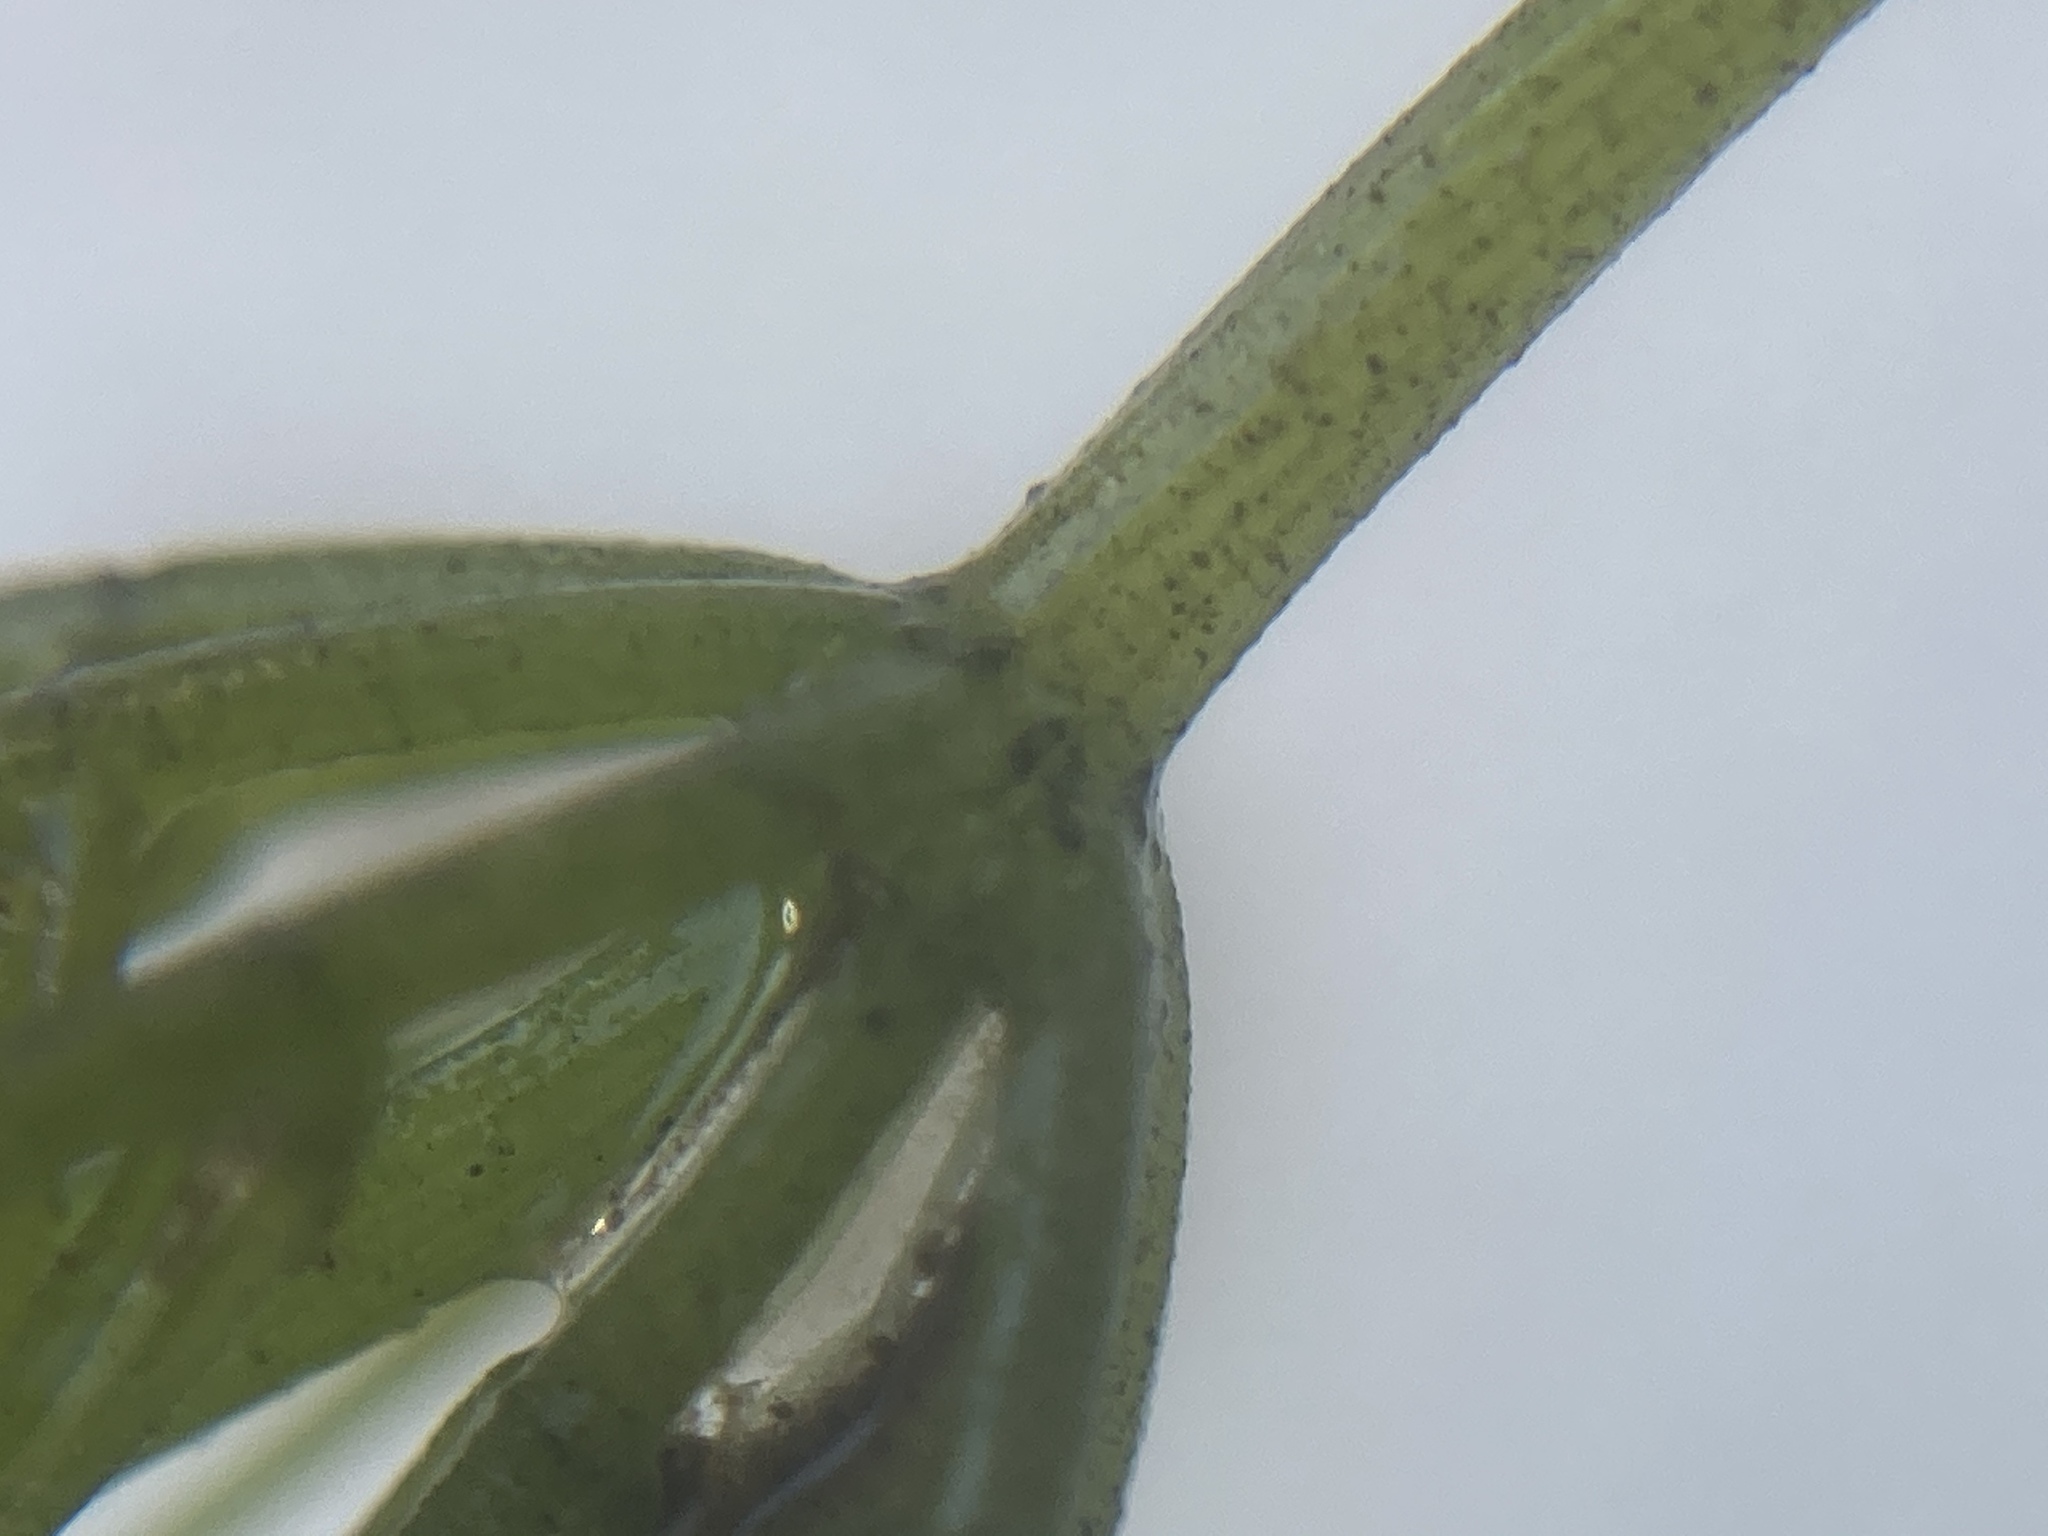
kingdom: Plantae
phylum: Charophyta
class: Charophyceae
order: Charales
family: Characeae
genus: Chara
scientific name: Chara vulgaris
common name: Common stonewort
